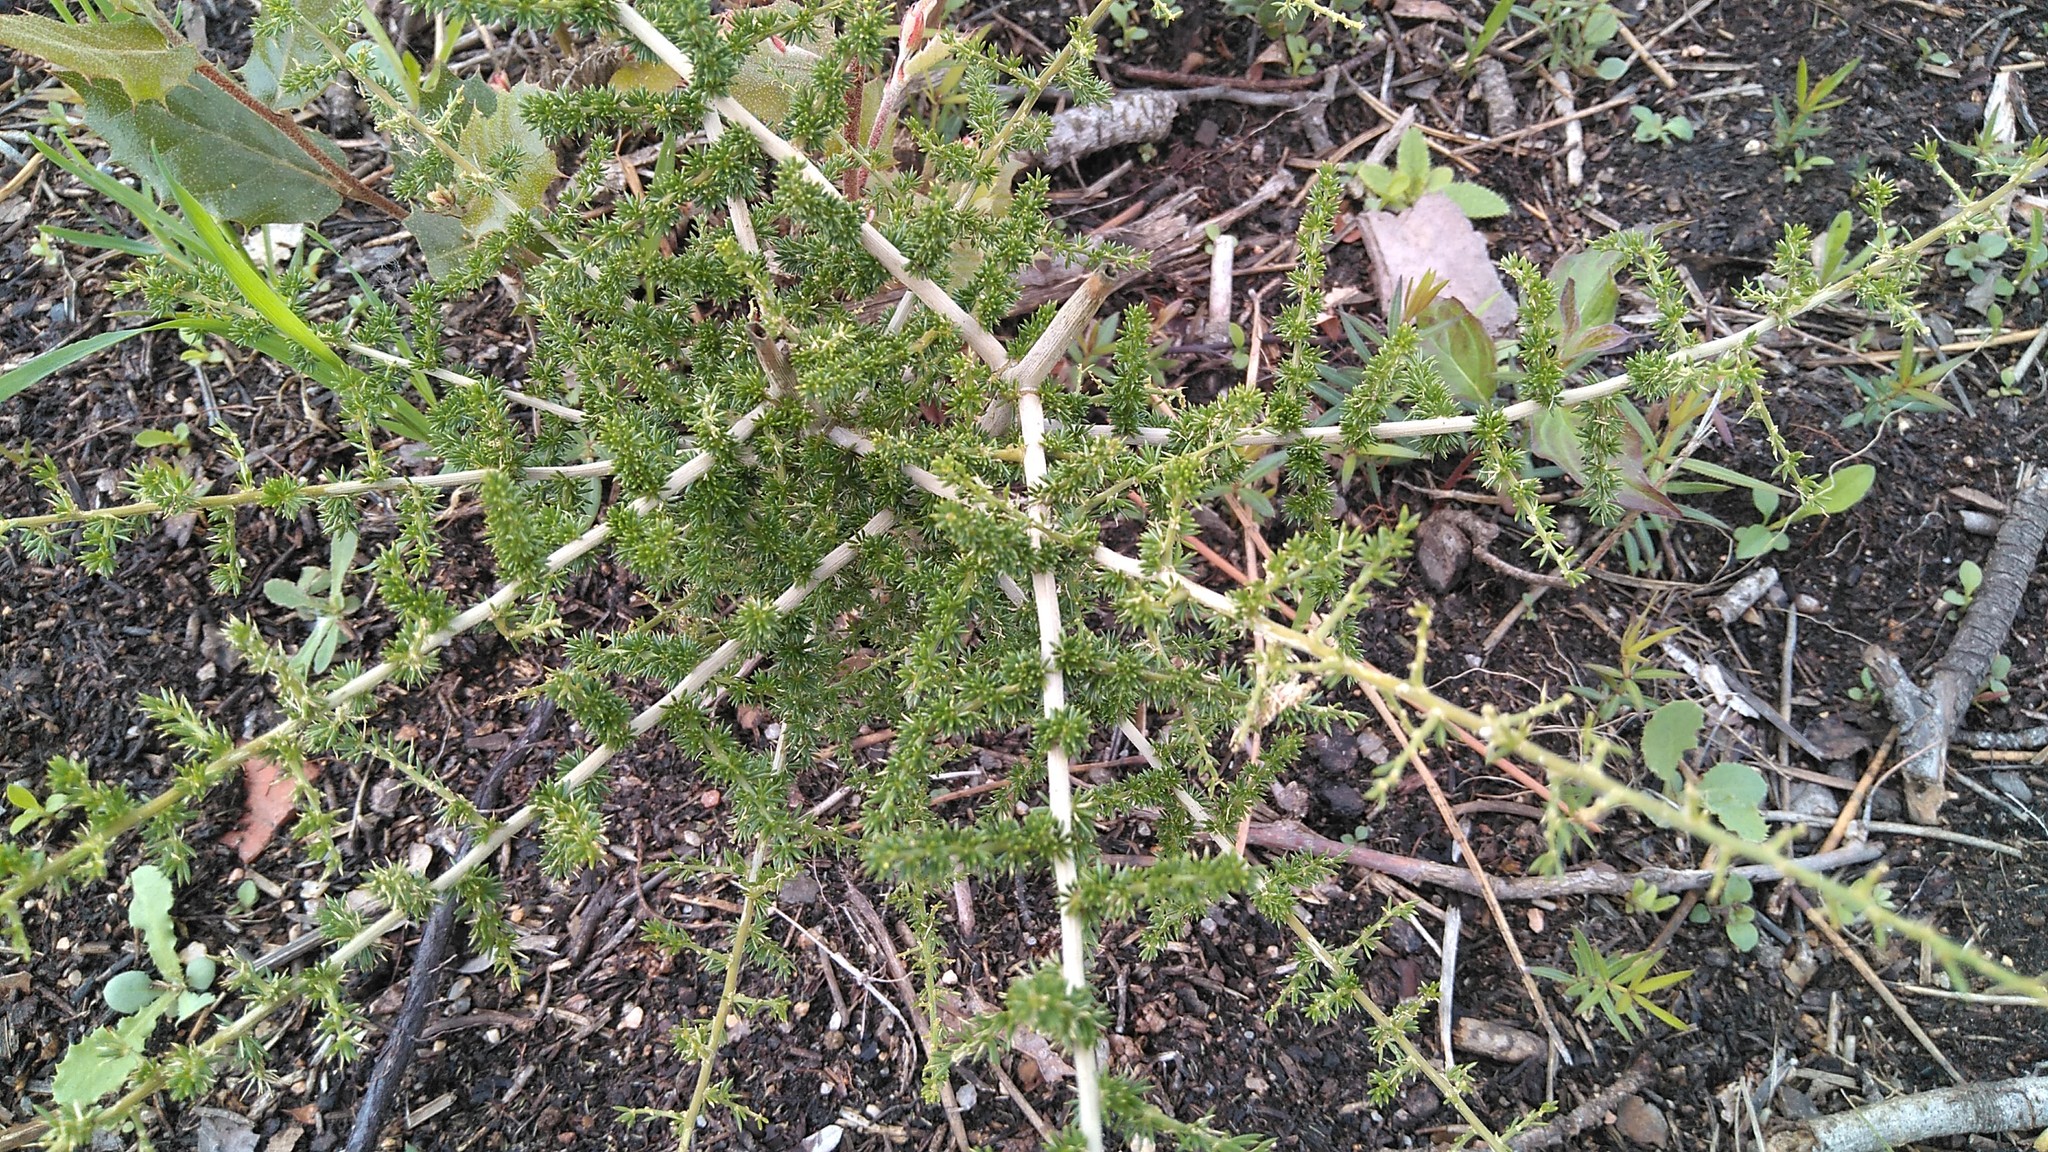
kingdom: Plantae
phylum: Tracheophyta
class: Liliopsida
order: Asparagales
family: Asparagaceae
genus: Asparagus
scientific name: Asparagus acutifolius
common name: Wild asparagus
